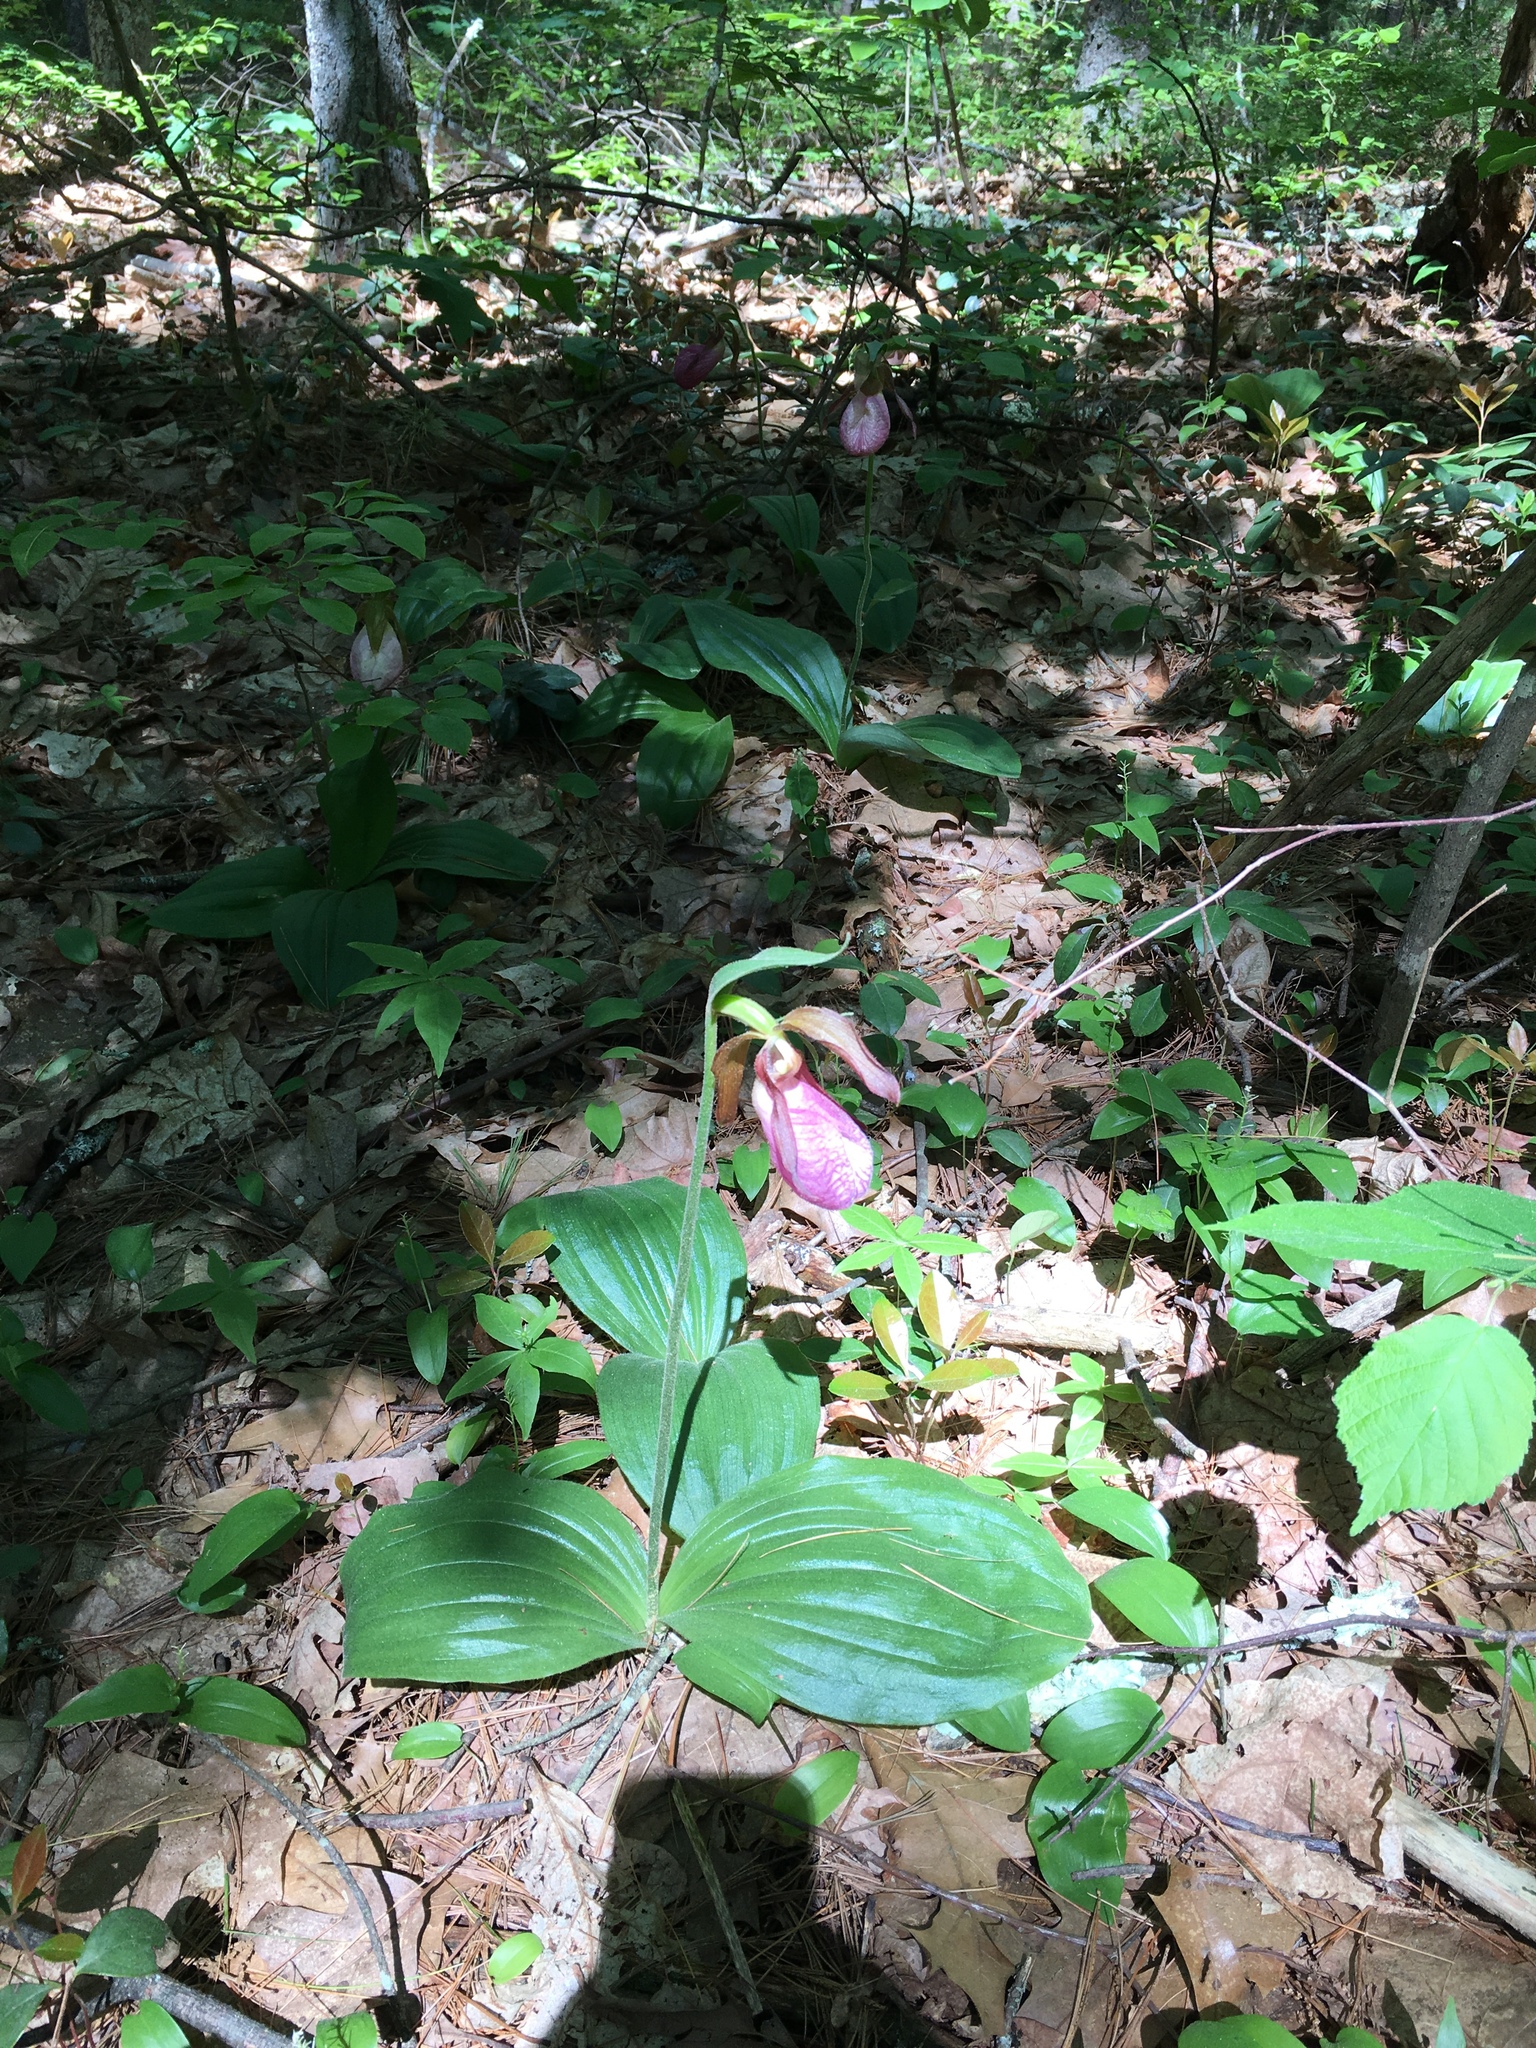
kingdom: Plantae
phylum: Tracheophyta
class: Liliopsida
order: Asparagales
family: Orchidaceae
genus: Cypripedium
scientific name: Cypripedium acaule
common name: Pink lady's-slipper
